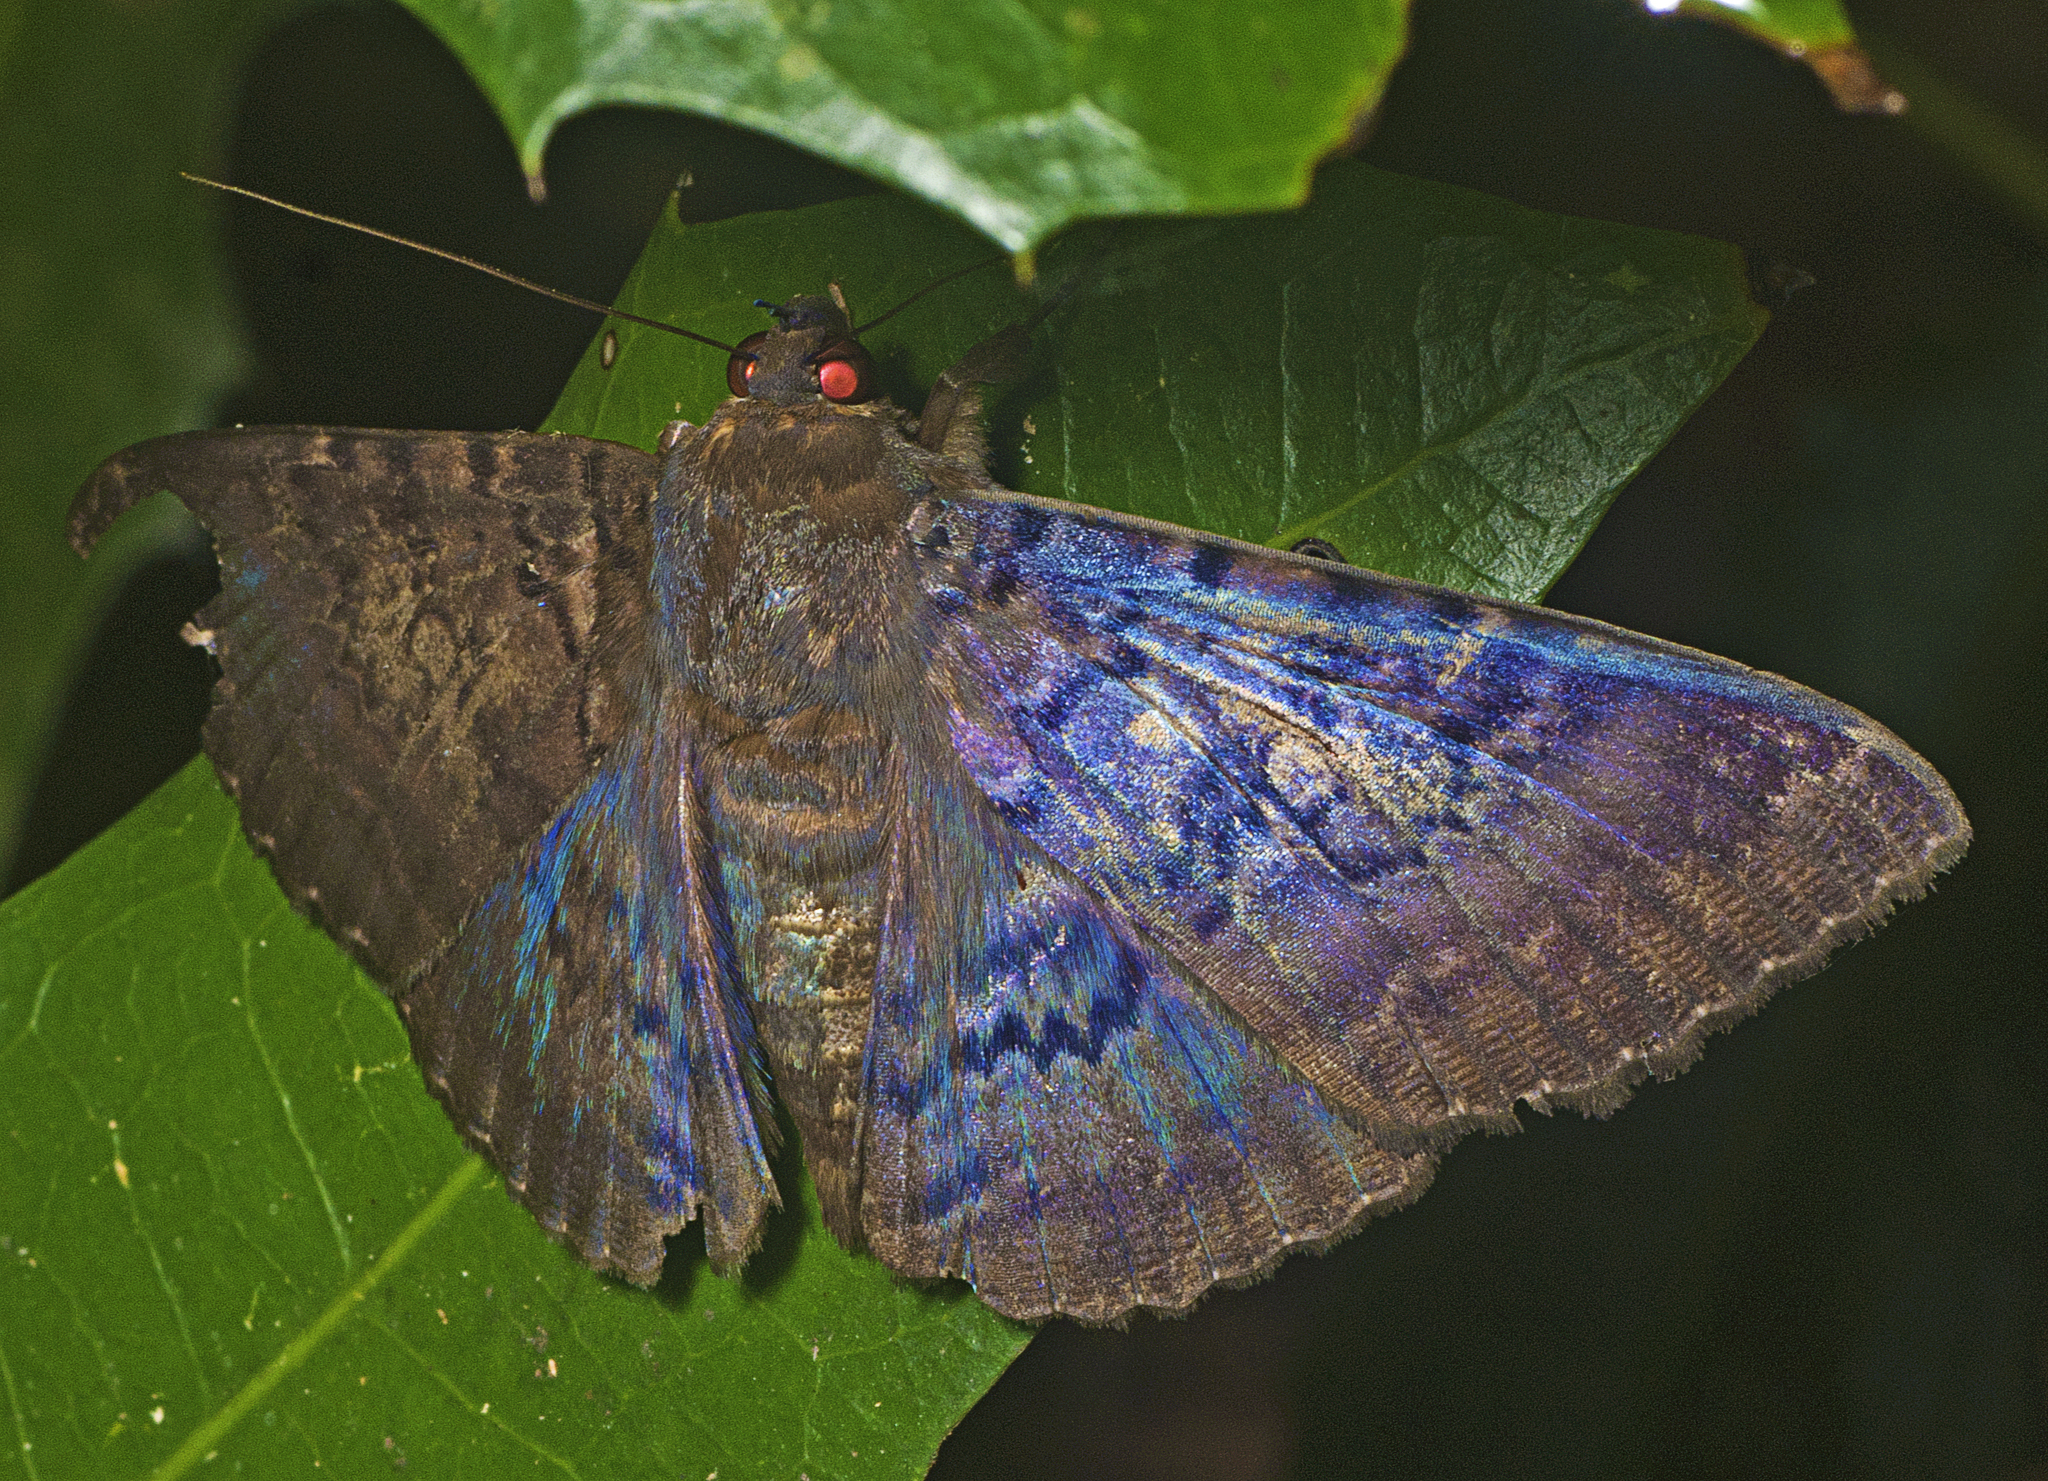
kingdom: Animalia
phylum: Arthropoda
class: Insecta
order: Lepidoptera
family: Erebidae
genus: Speiredonia
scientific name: Speiredonia mutabilis
